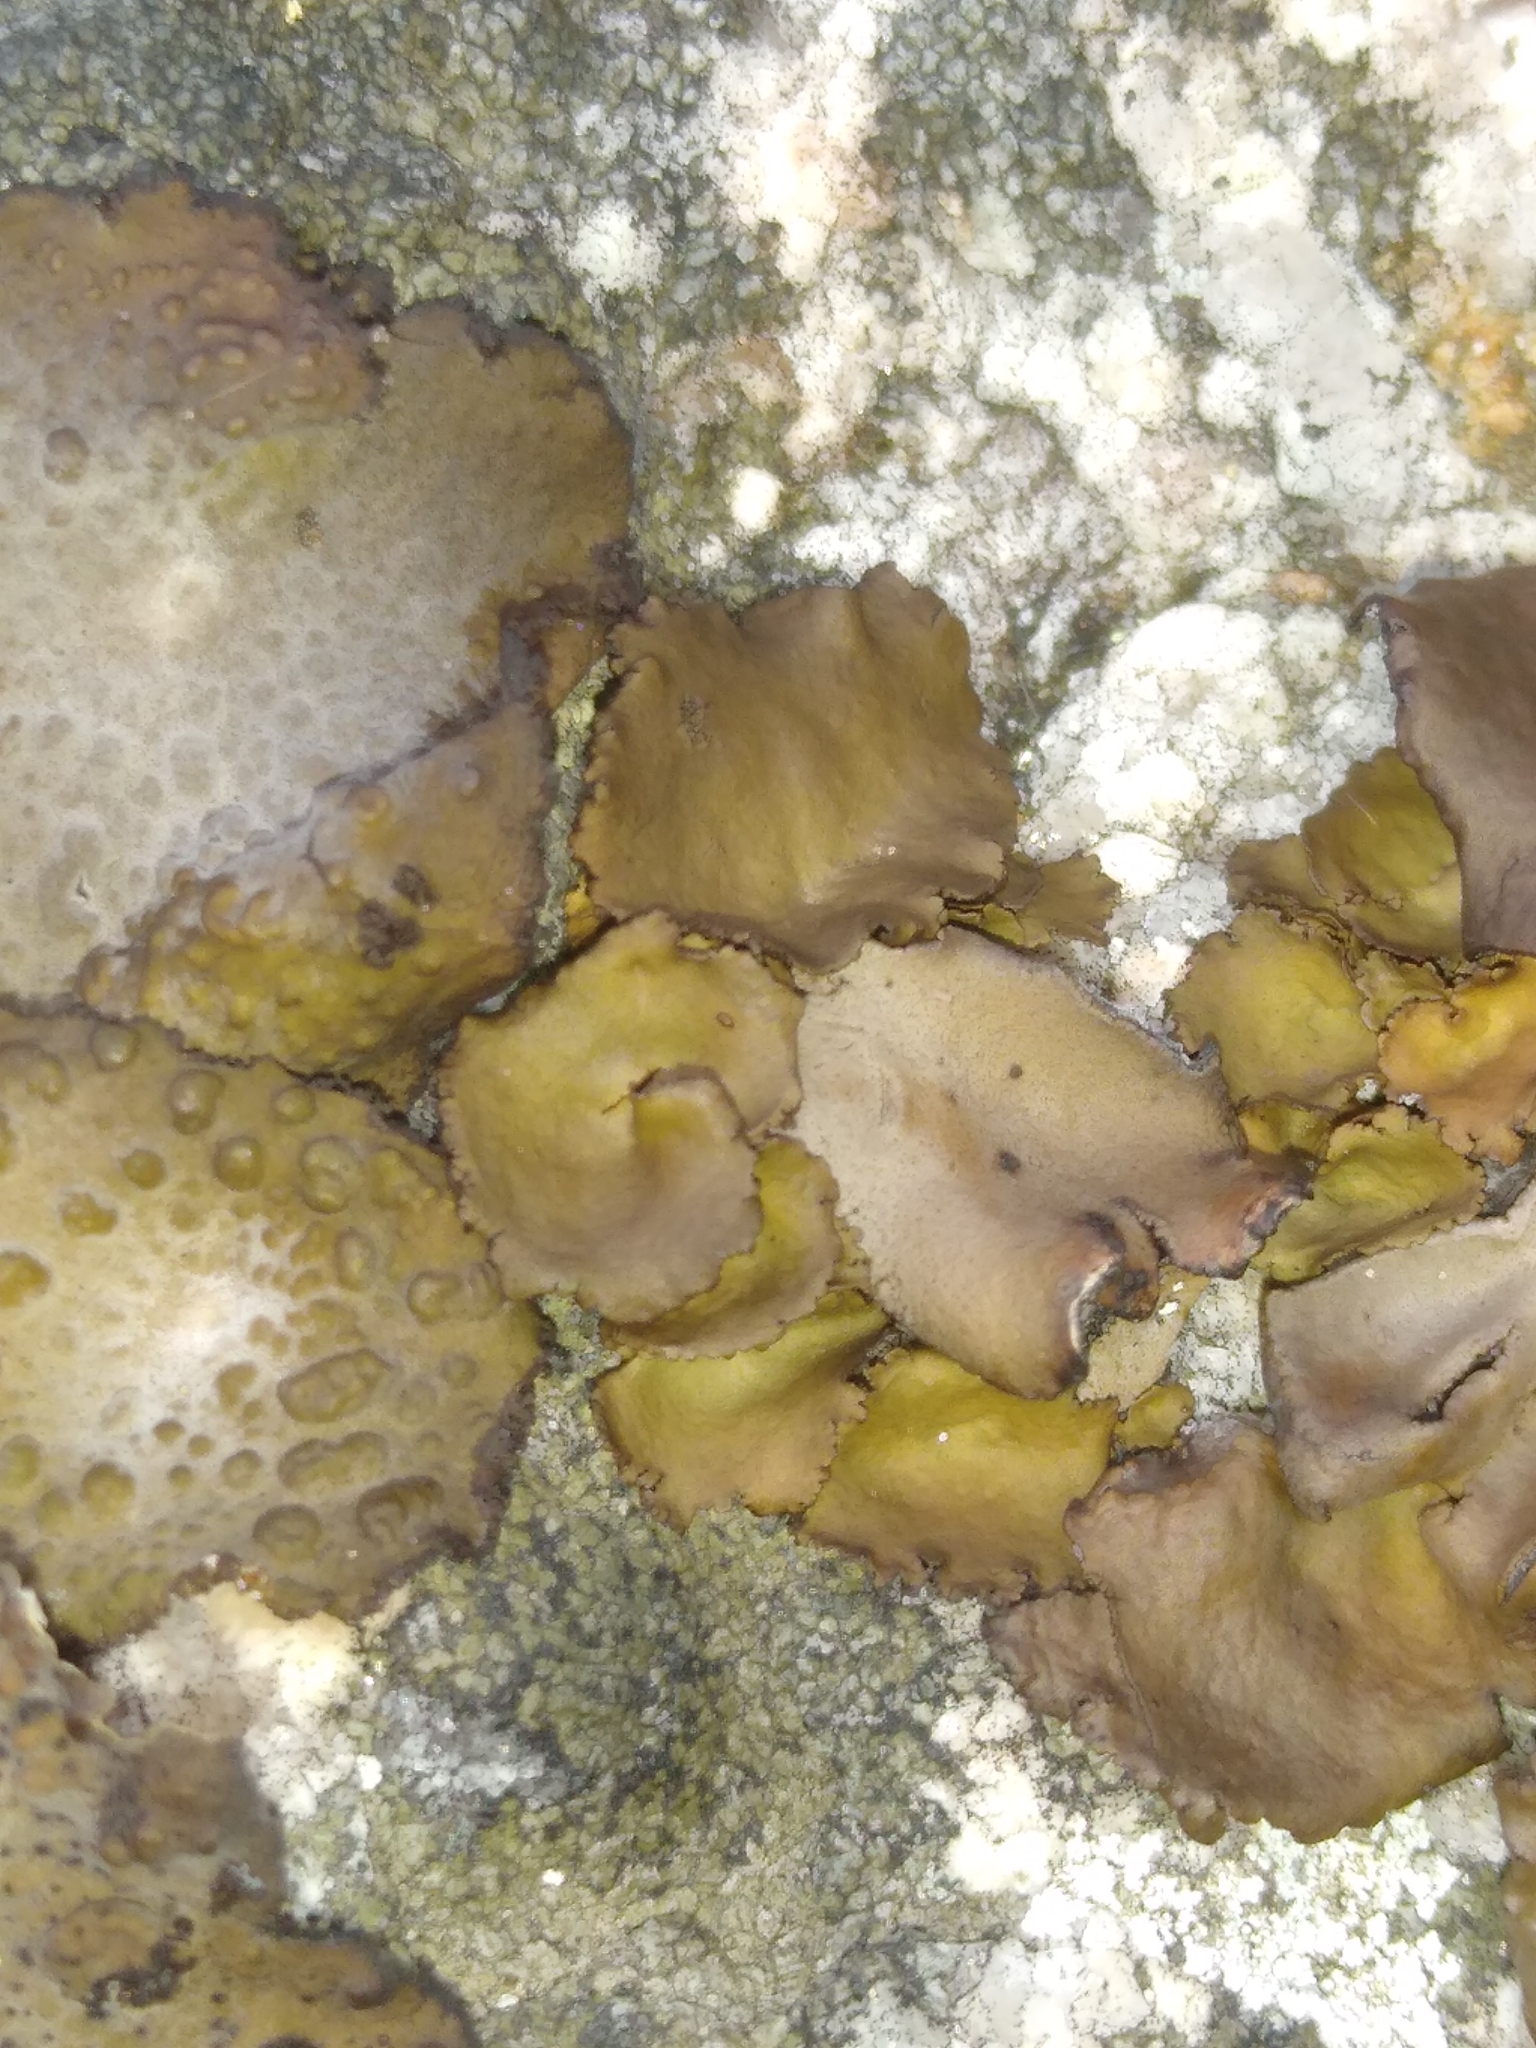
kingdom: Fungi
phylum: Ascomycota
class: Lecanoromycetes
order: Umbilicariales
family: Umbilicariaceae
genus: Umbilicaria
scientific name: Umbilicaria muhlenbergii
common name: Lesser rocktripe
